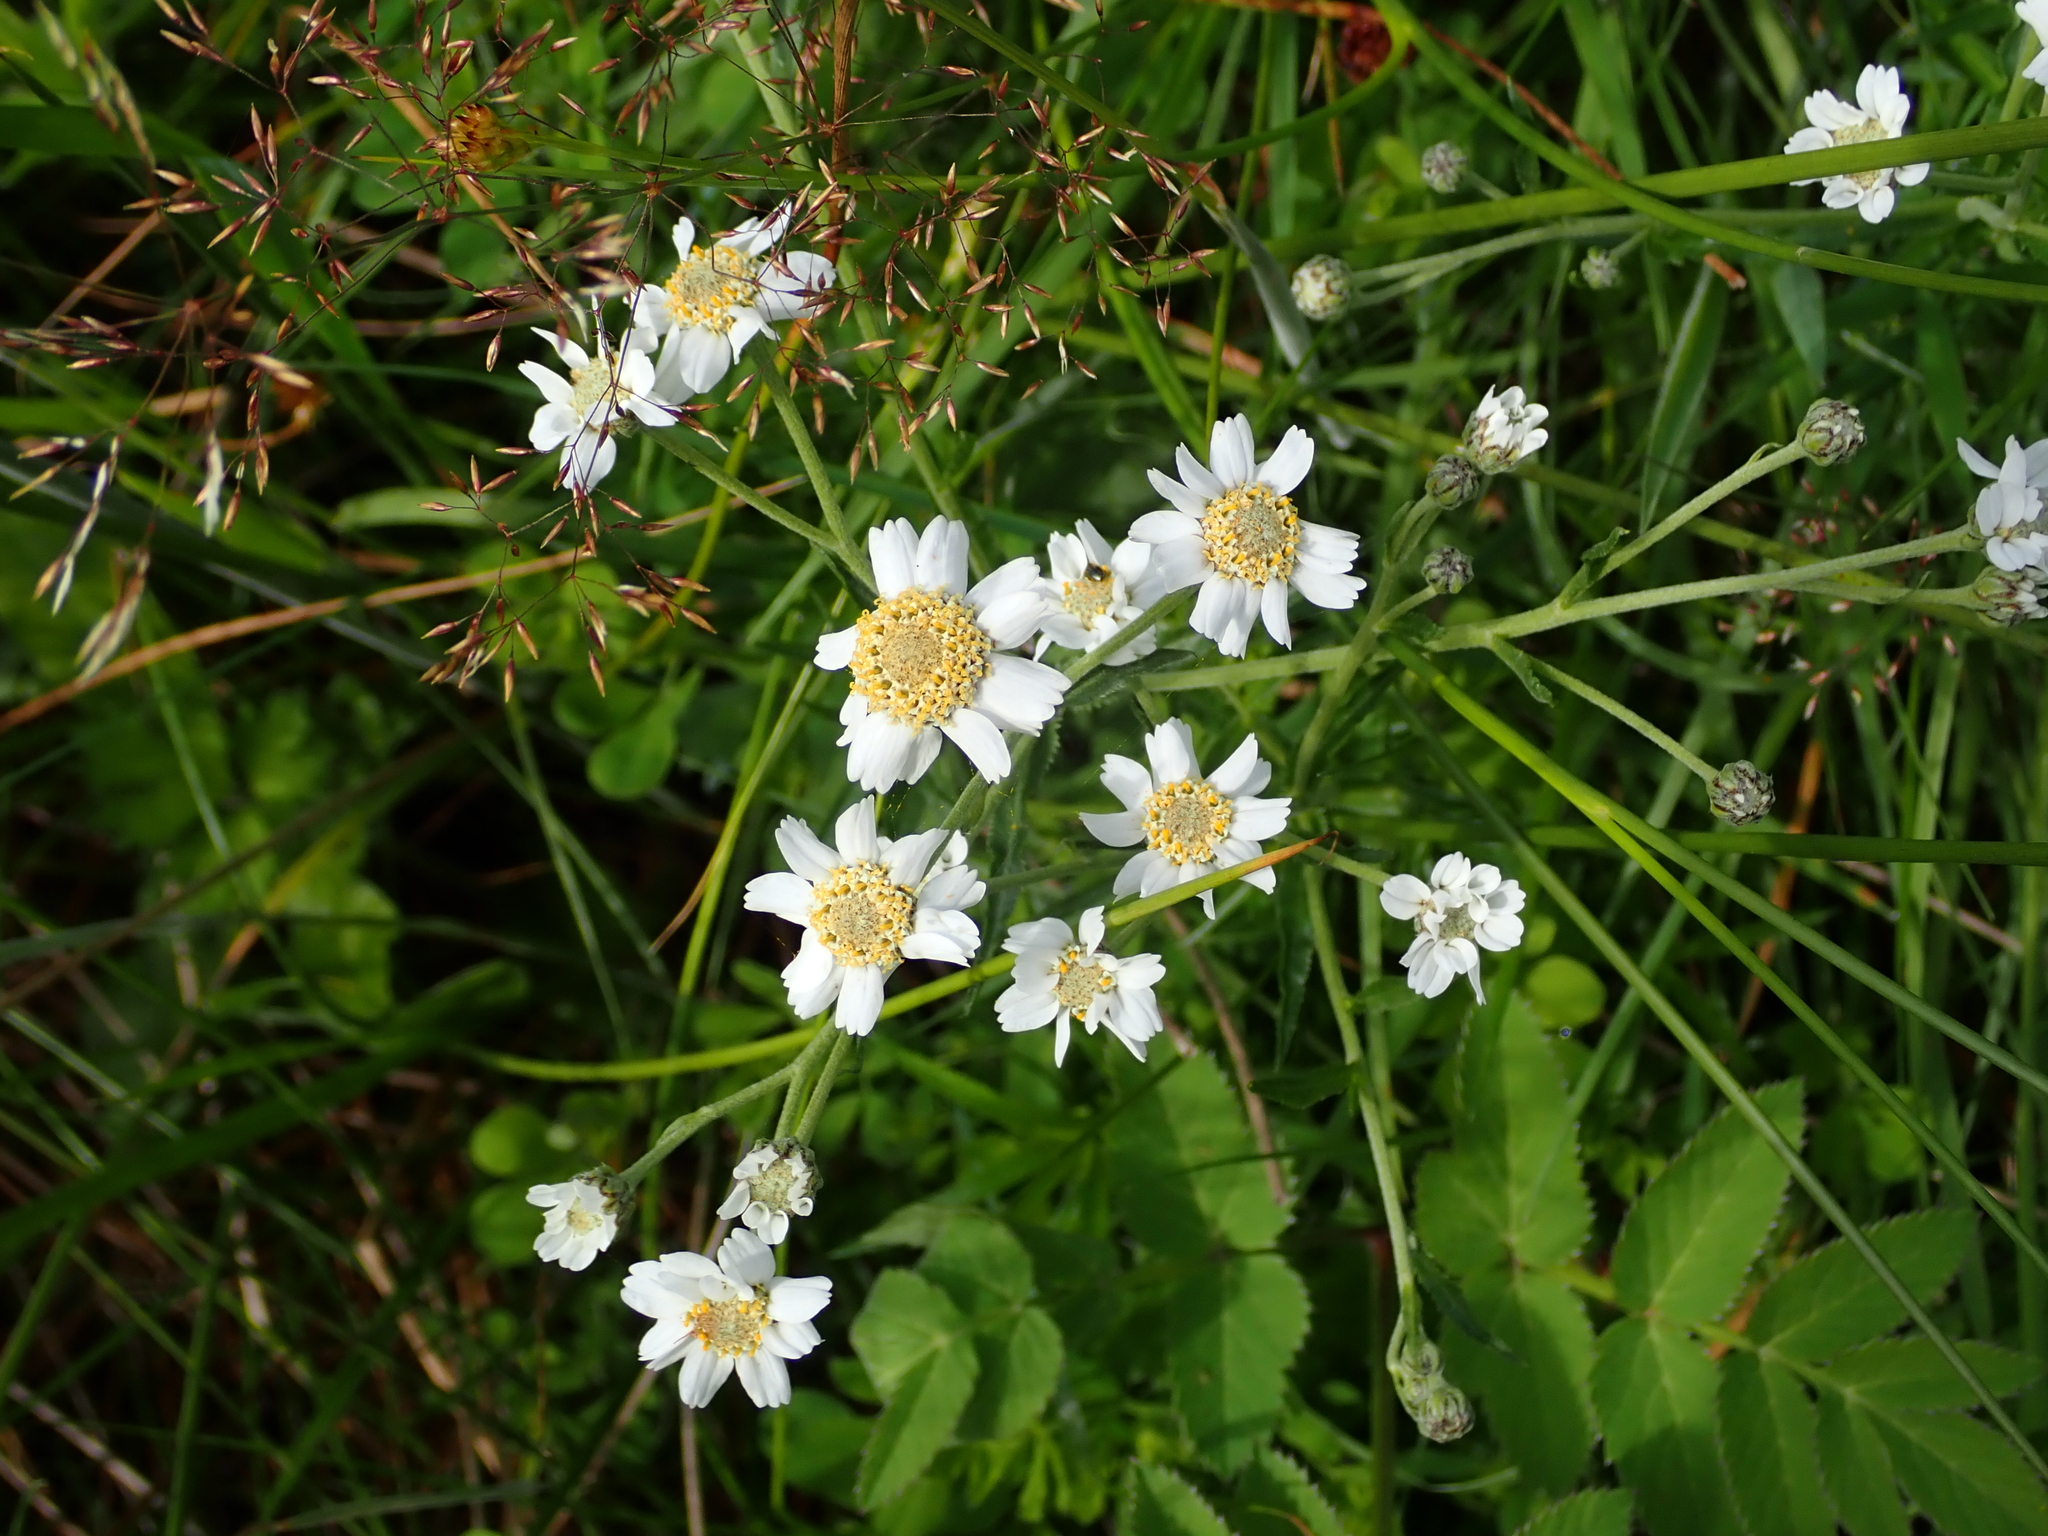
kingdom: Plantae
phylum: Tracheophyta
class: Magnoliopsida
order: Asterales
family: Asteraceae
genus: Achillea
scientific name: Achillea ptarmica
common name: Sneezeweed
